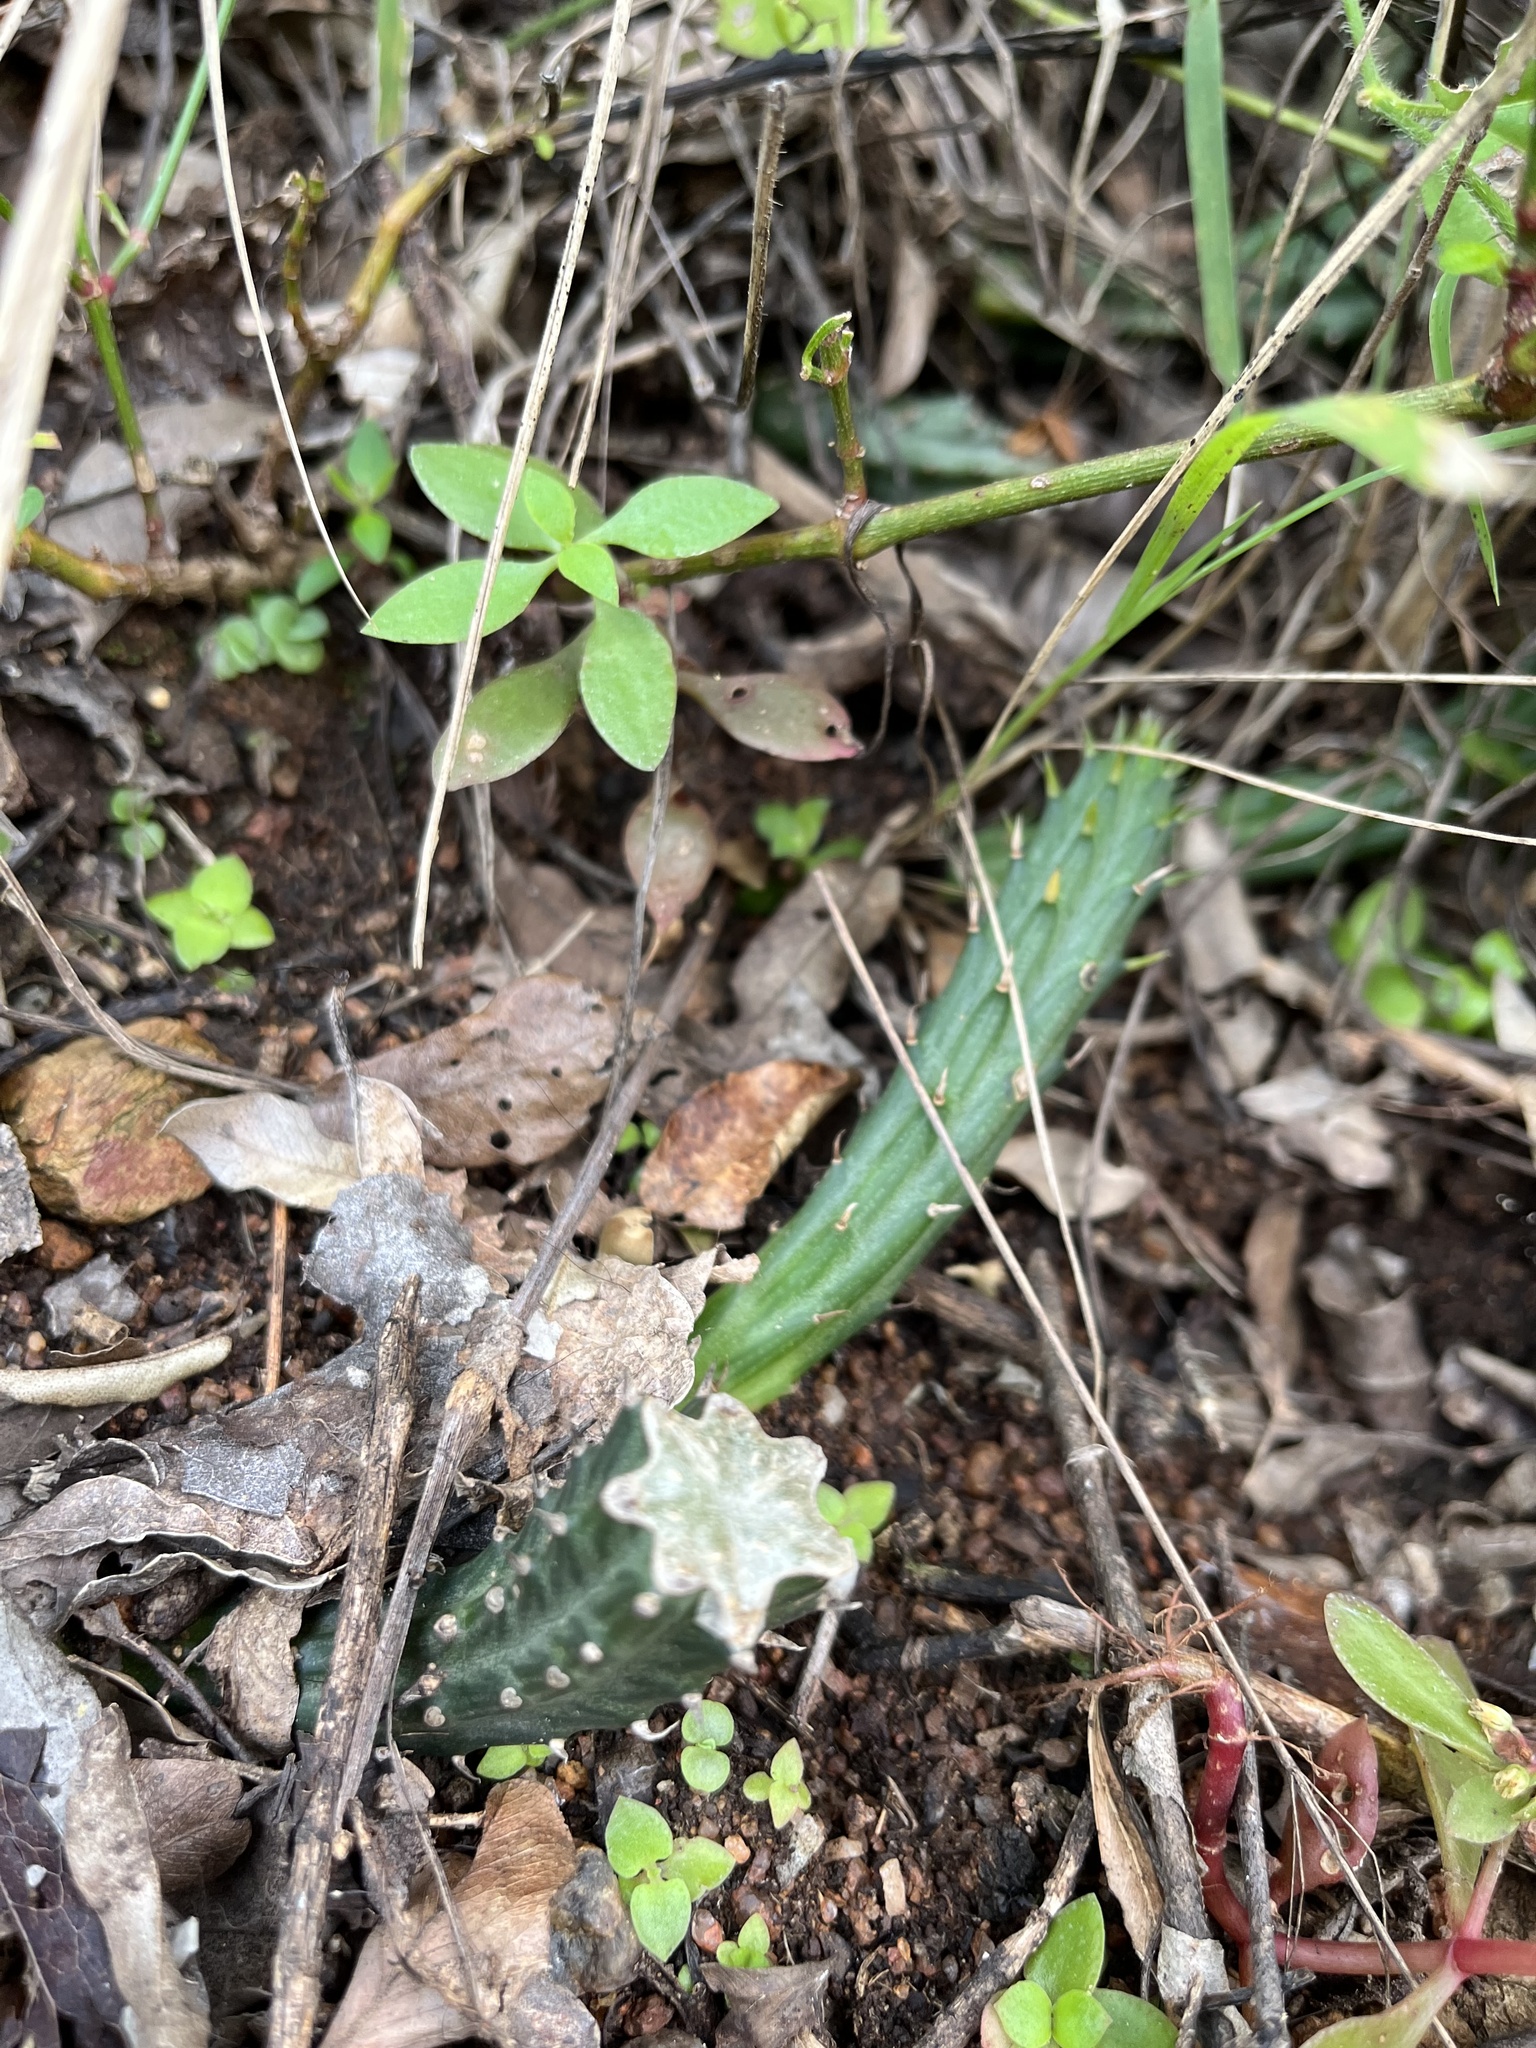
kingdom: Plantae
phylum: Tracheophyta
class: Magnoliopsida
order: Asterales
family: Asteraceae
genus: Kleinia
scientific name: Kleinia stapeliiformis
